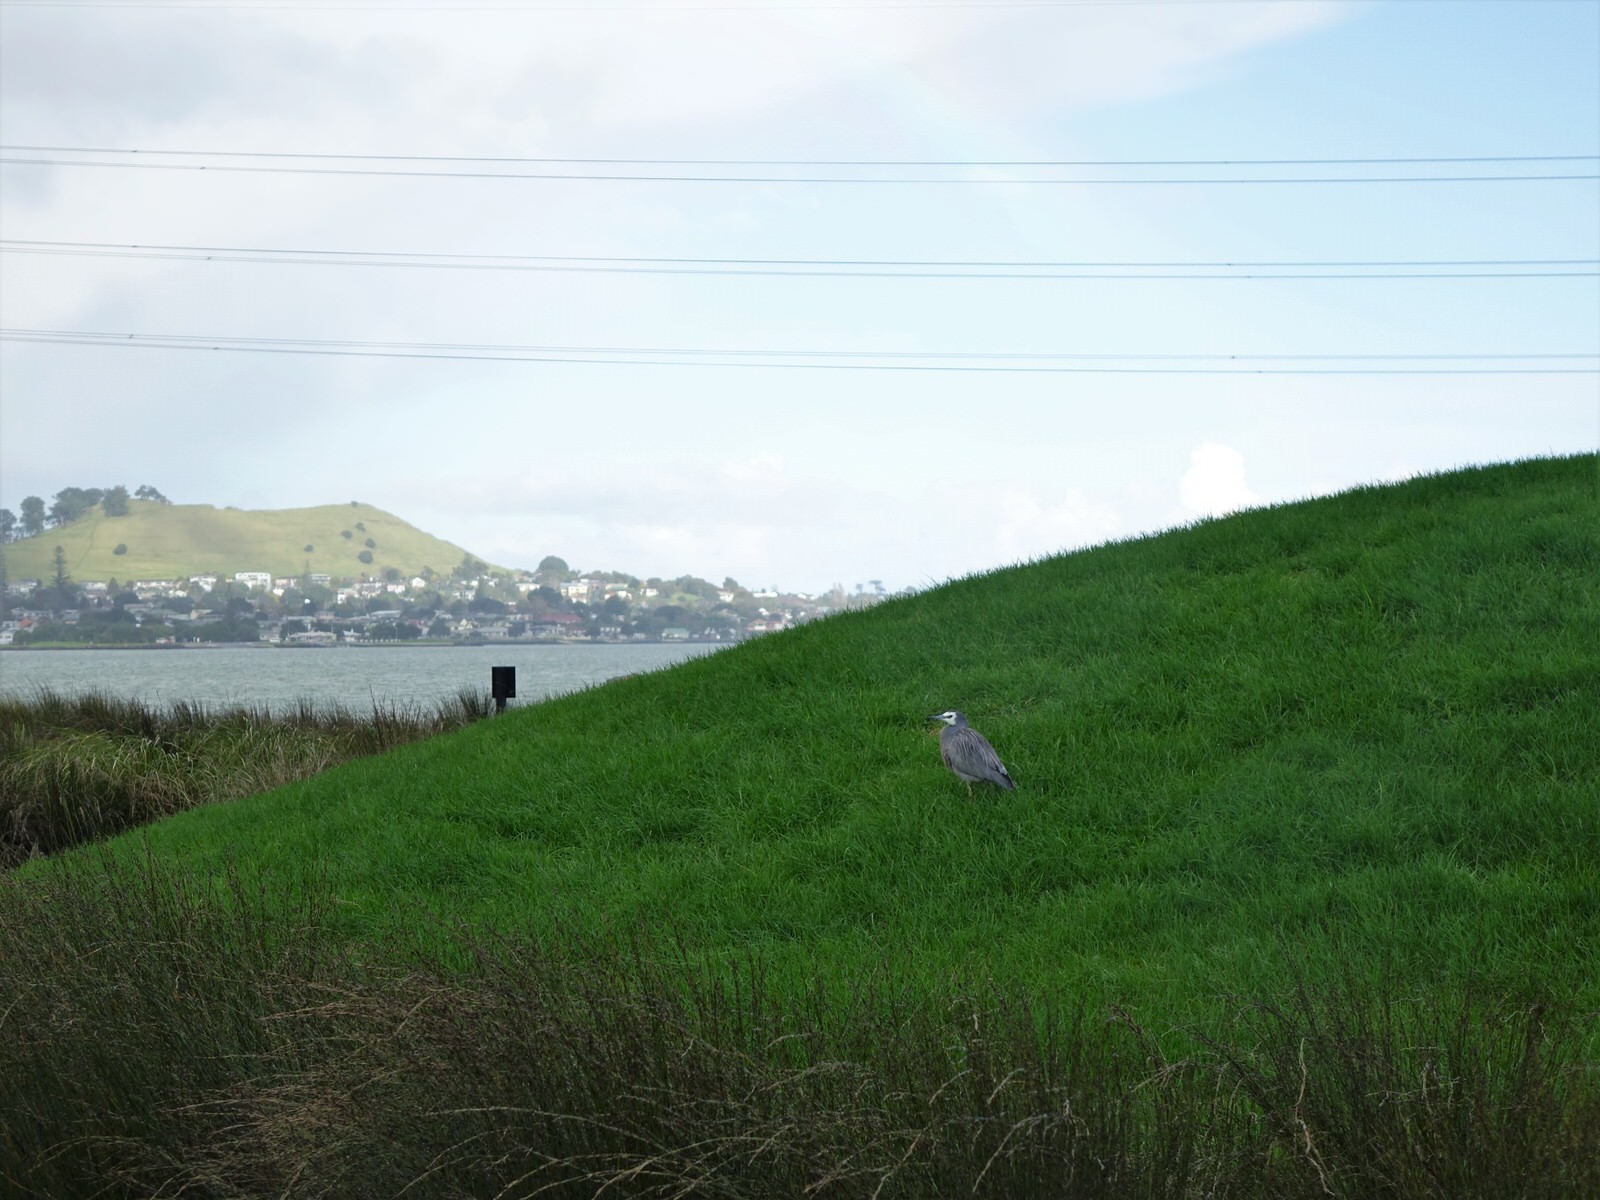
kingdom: Animalia
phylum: Chordata
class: Aves
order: Pelecaniformes
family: Ardeidae
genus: Egretta
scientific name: Egretta novaehollandiae
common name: White-faced heron
